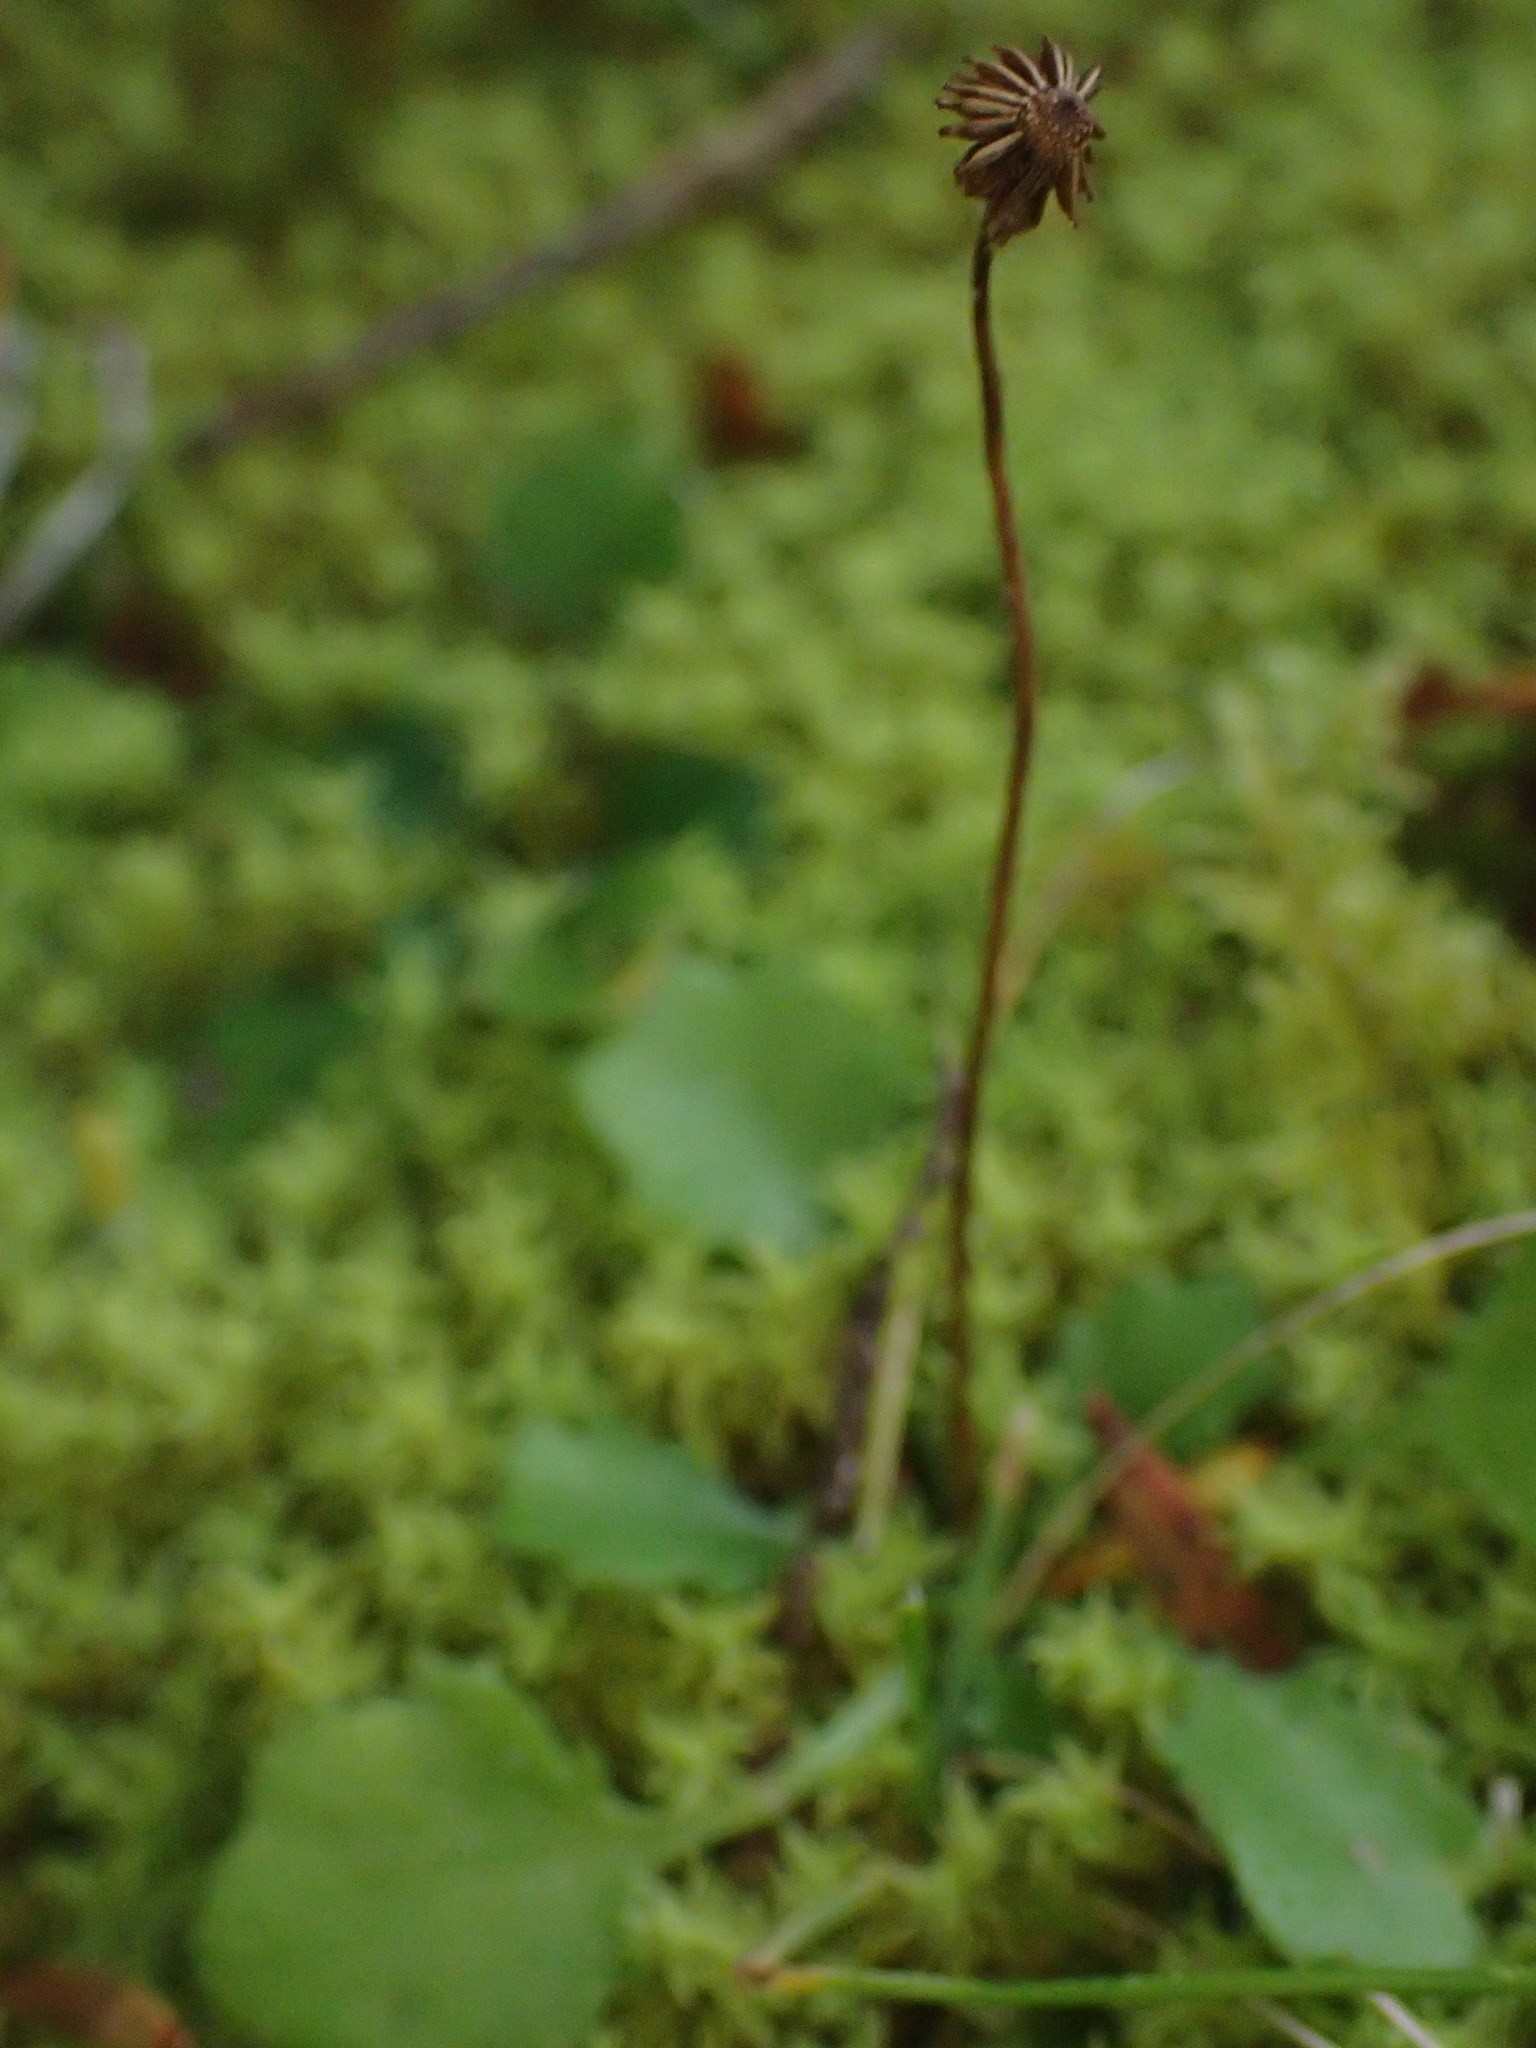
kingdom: Plantae
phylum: Tracheophyta
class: Magnoliopsida
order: Asterales
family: Asteraceae
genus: Lagenophora
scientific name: Lagenophora pumila
